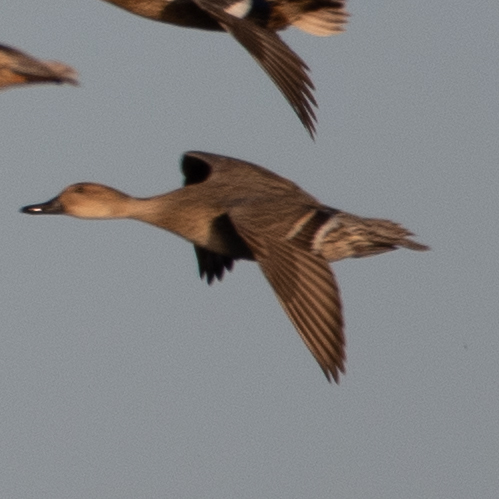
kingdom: Animalia
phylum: Chordata
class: Aves
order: Anseriformes
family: Anatidae
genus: Anas
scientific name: Anas acuta
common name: Northern pintail
